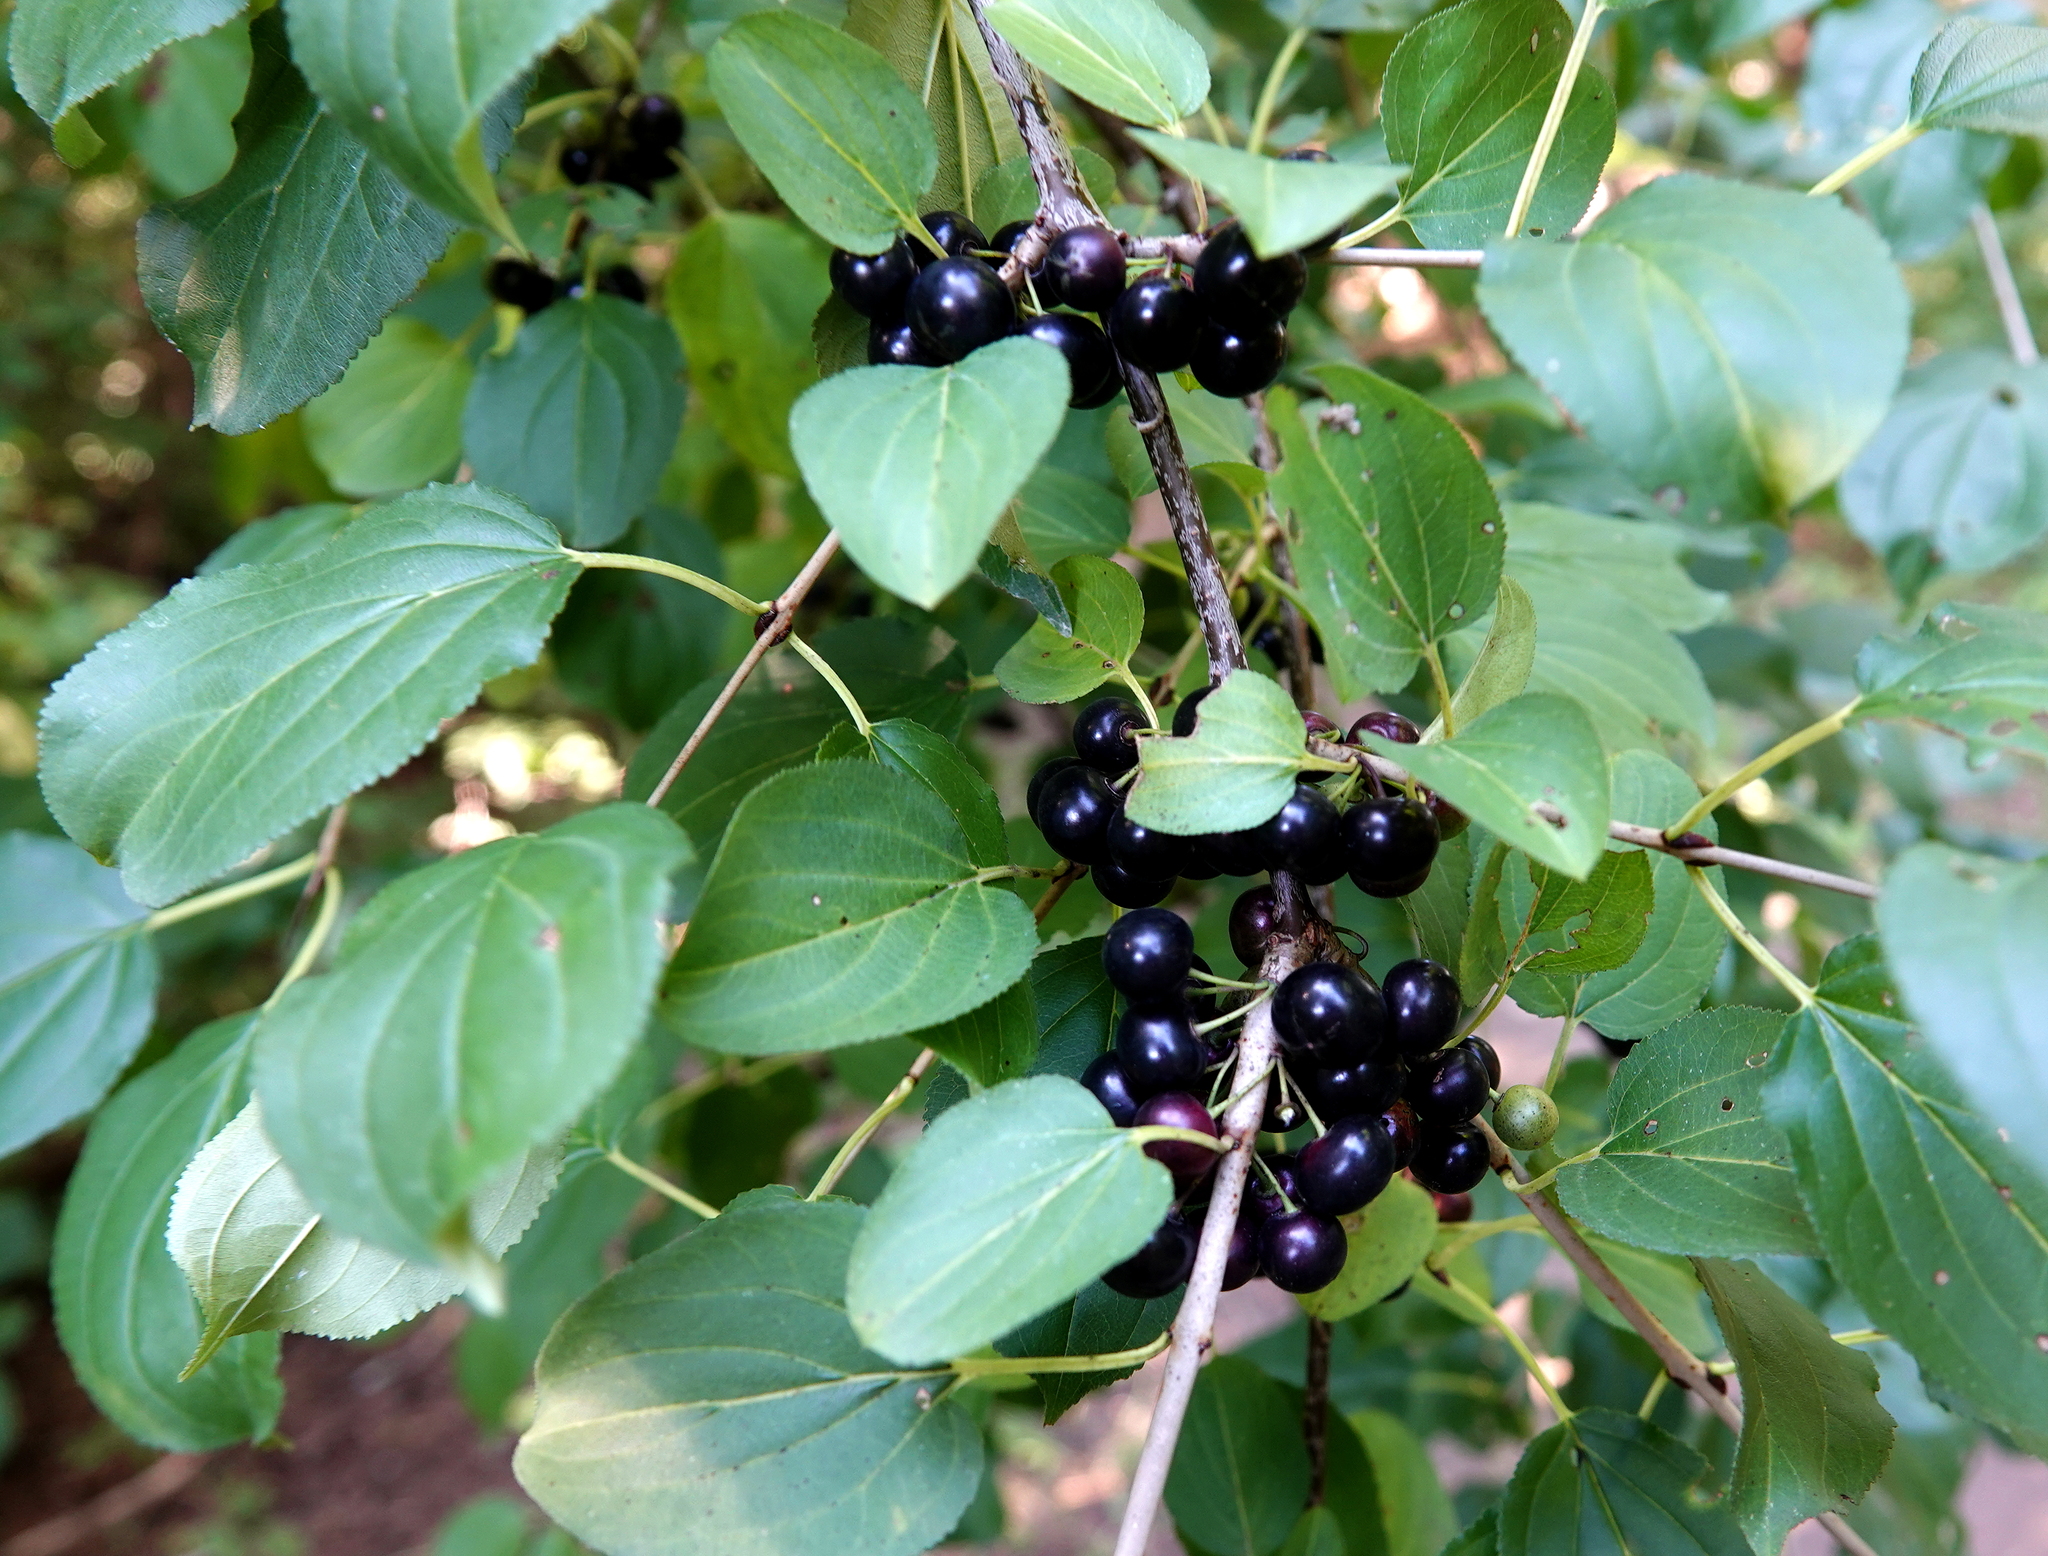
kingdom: Plantae
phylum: Tracheophyta
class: Magnoliopsida
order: Rosales
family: Rhamnaceae
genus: Rhamnus
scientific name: Rhamnus cathartica
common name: Common buckthorn
